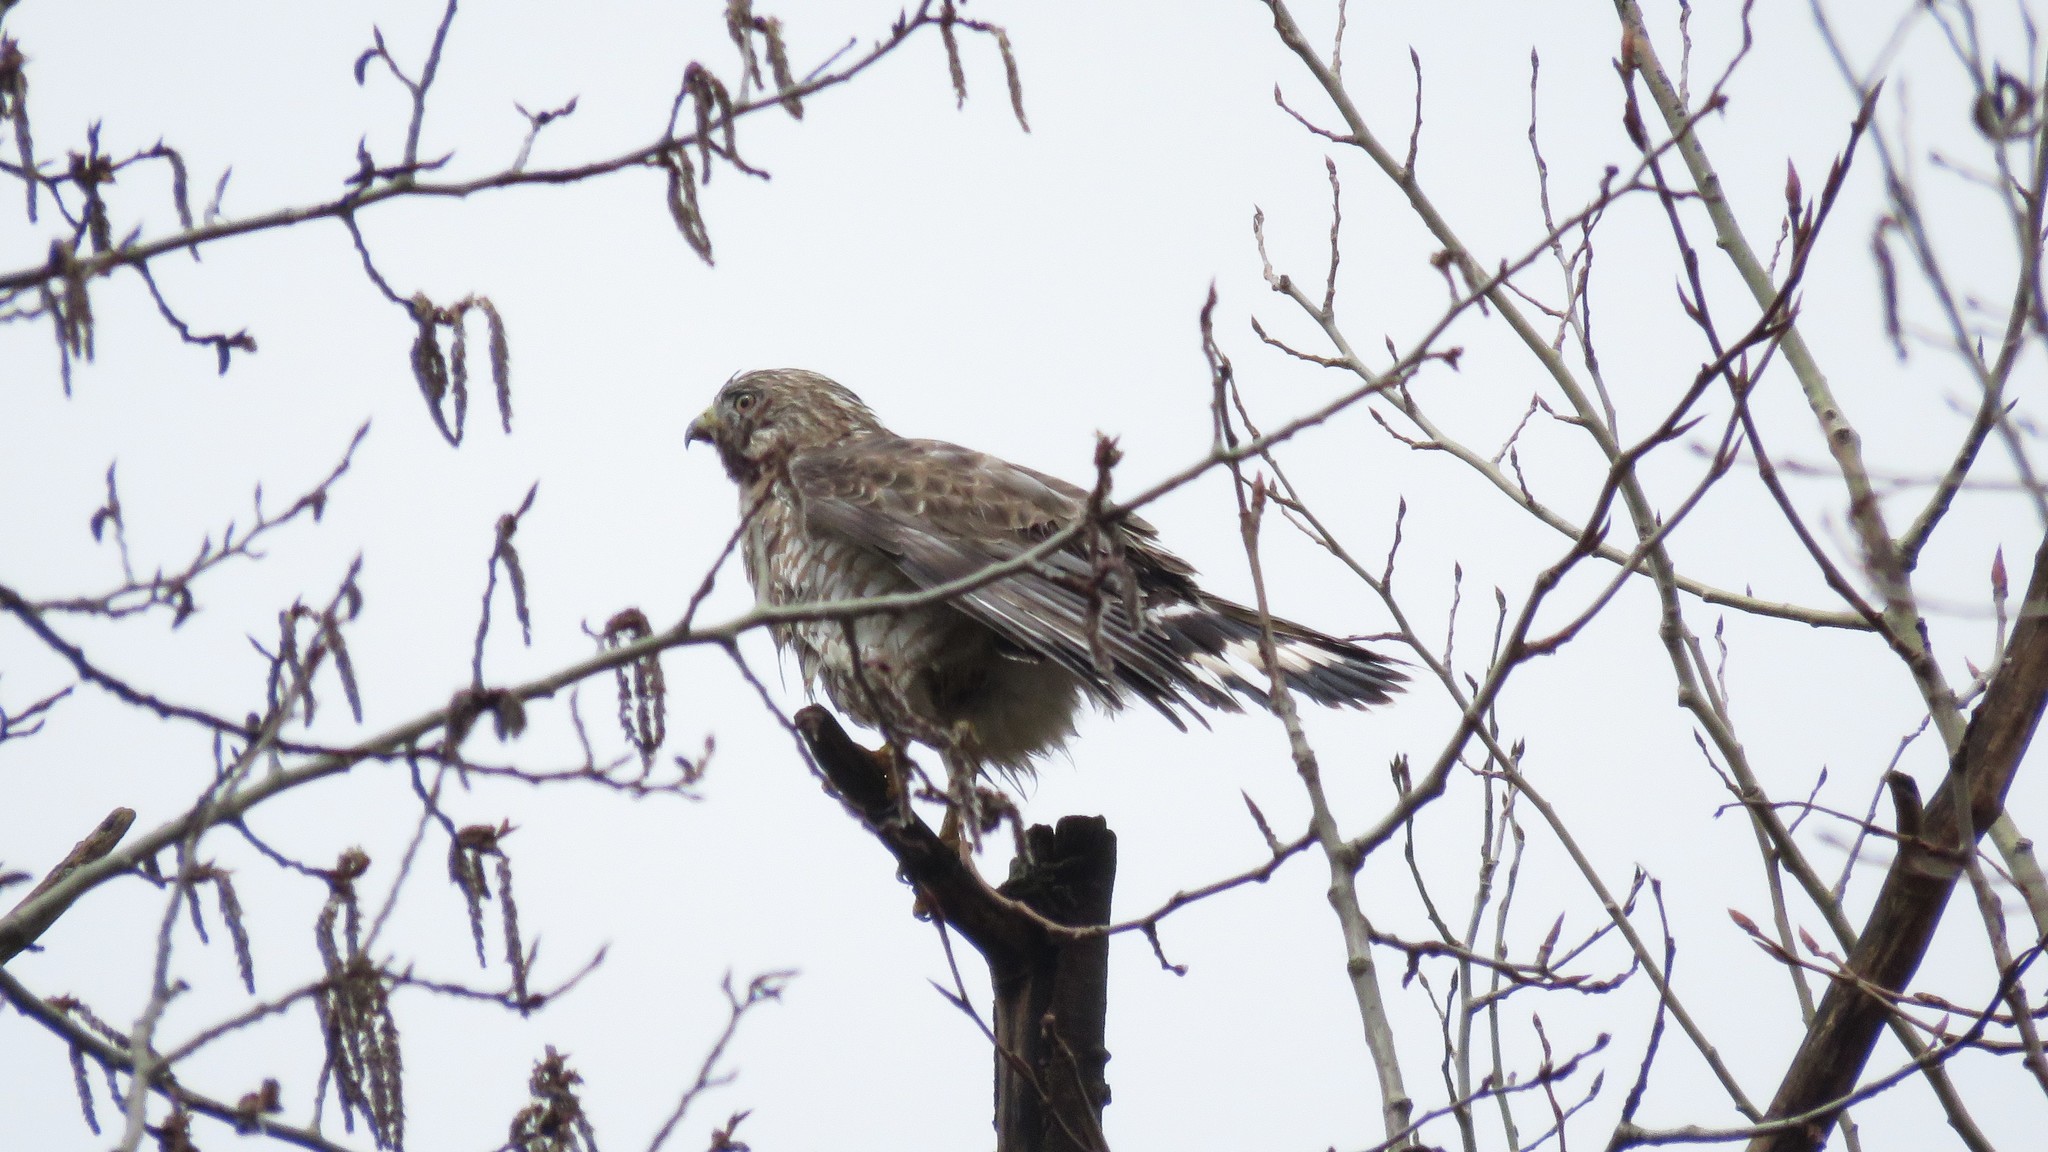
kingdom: Animalia
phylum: Chordata
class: Aves
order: Accipitriformes
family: Accipitridae
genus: Buteo
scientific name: Buteo platypterus
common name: Broad-winged hawk
